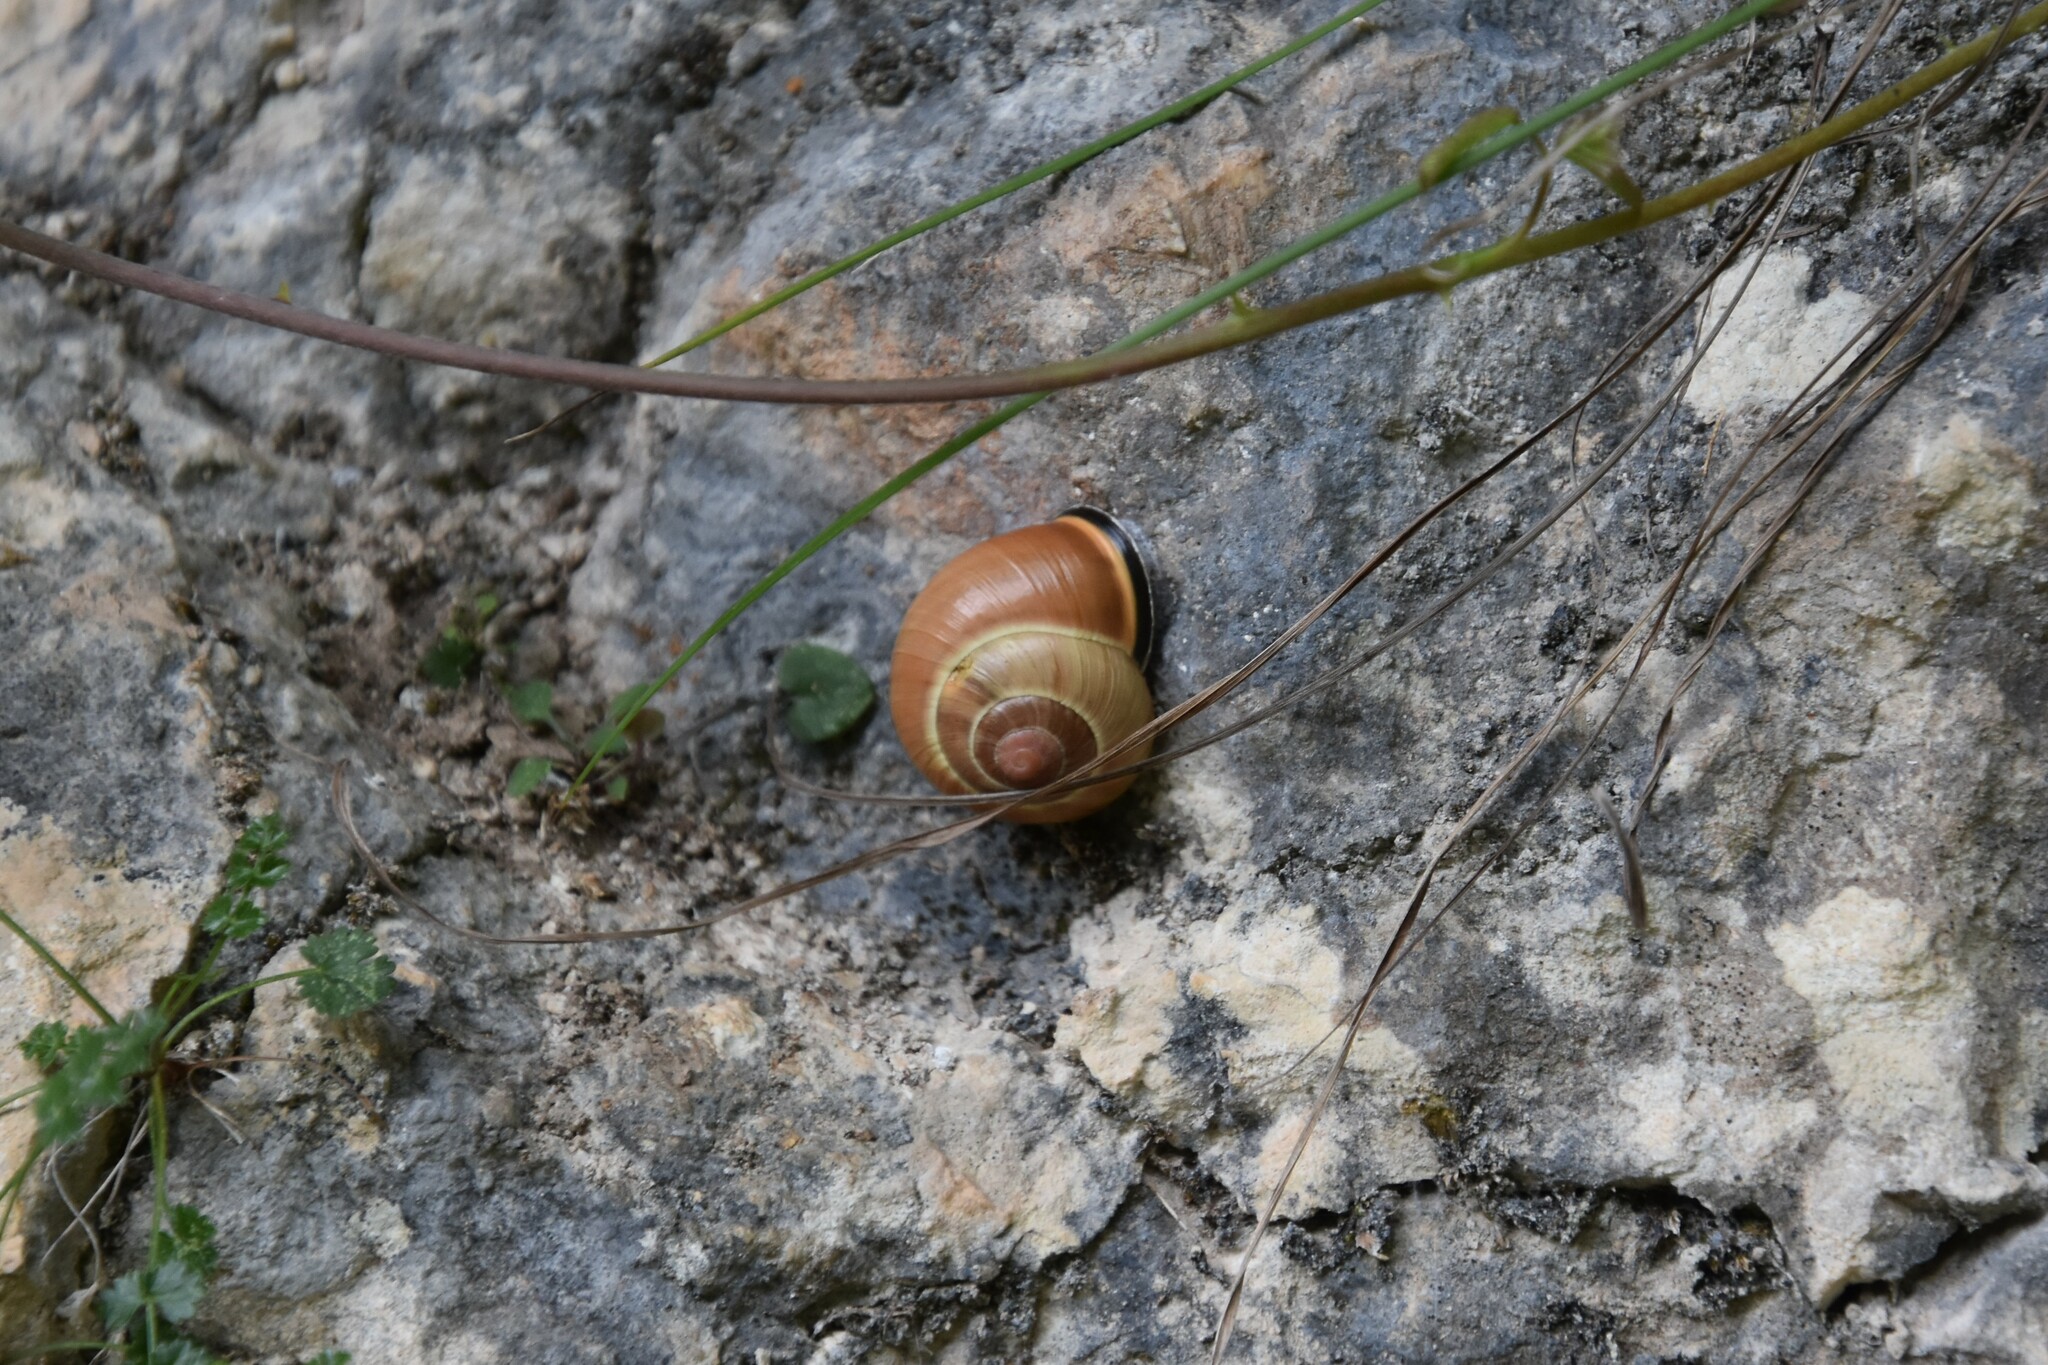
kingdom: Animalia
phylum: Mollusca
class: Gastropoda
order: Stylommatophora
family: Helicidae
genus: Cepaea
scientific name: Cepaea nemoralis
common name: Grovesnail
